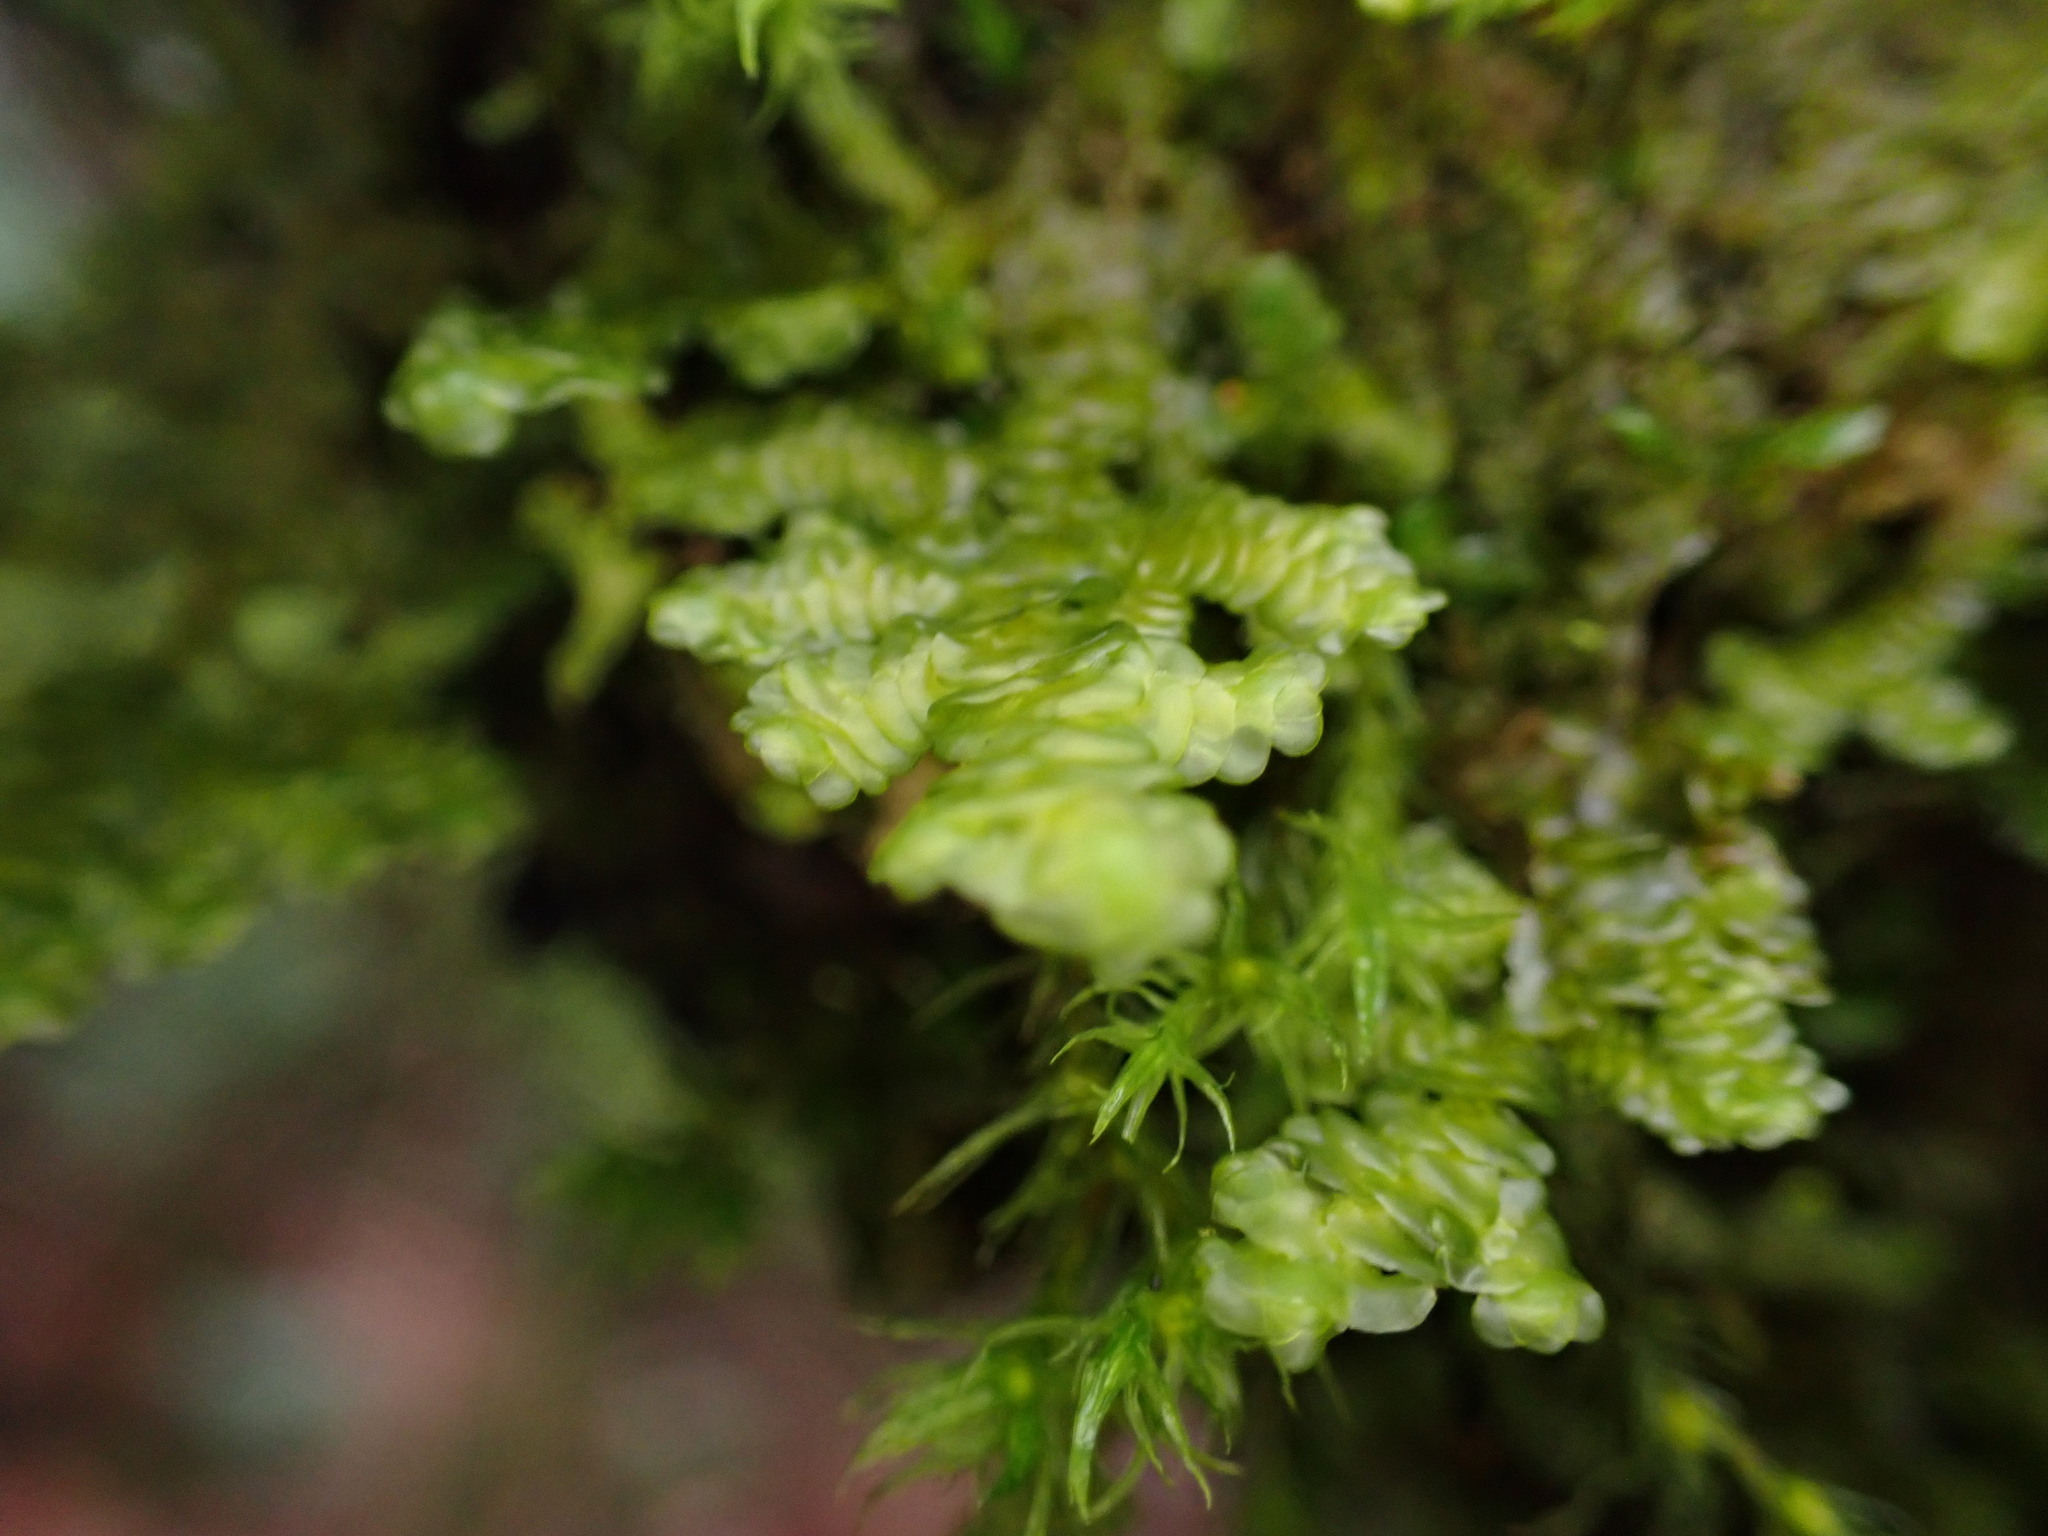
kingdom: Plantae
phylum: Marchantiophyta
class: Jungermanniopsida
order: Porellales
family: Porellaceae
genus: Porella
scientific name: Porella navicularis
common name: Tree ruffle liverwort
